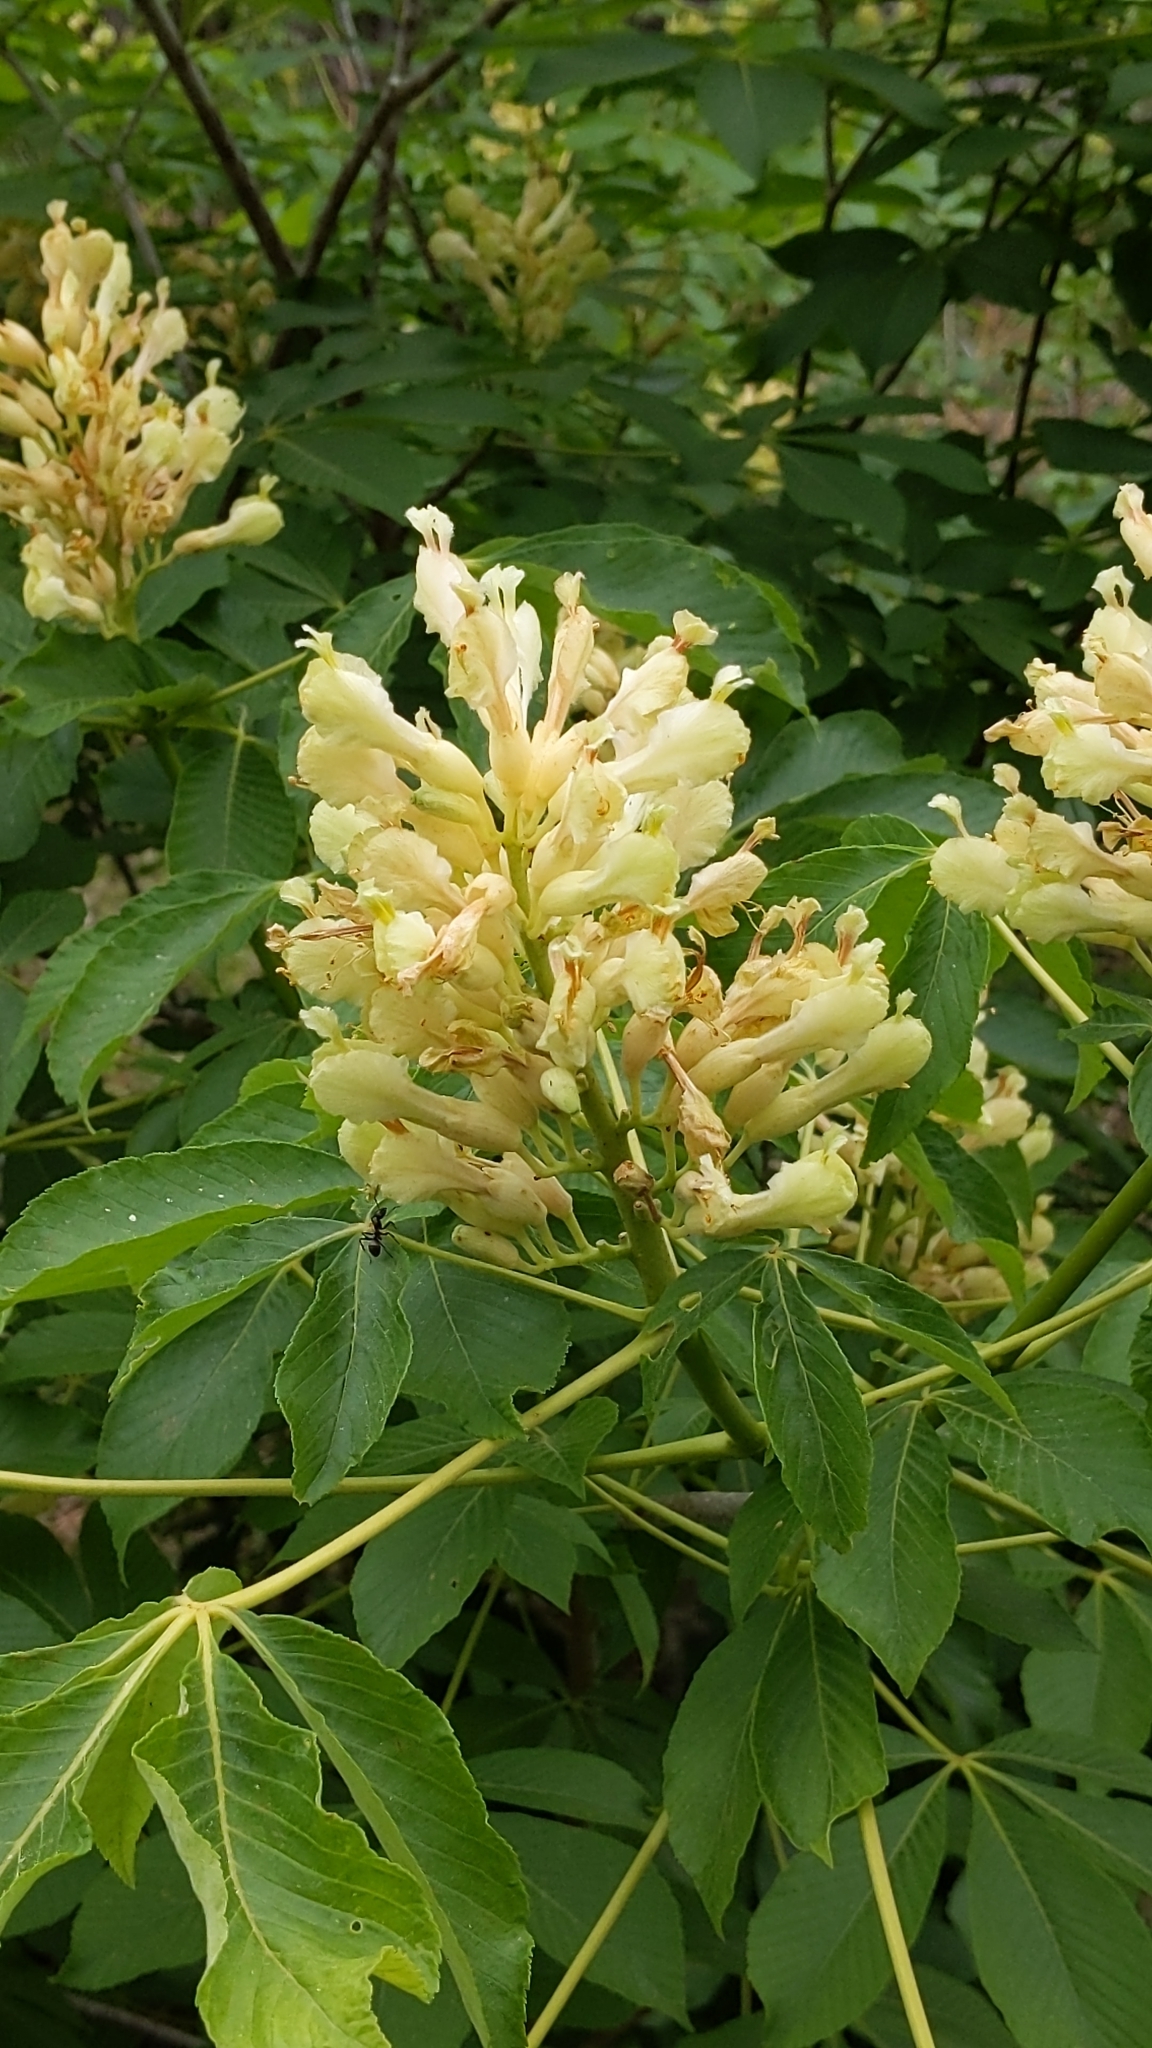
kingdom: Plantae
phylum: Tracheophyta
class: Magnoliopsida
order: Sapindales
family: Sapindaceae
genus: Aesculus
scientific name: Aesculus sylvatica
